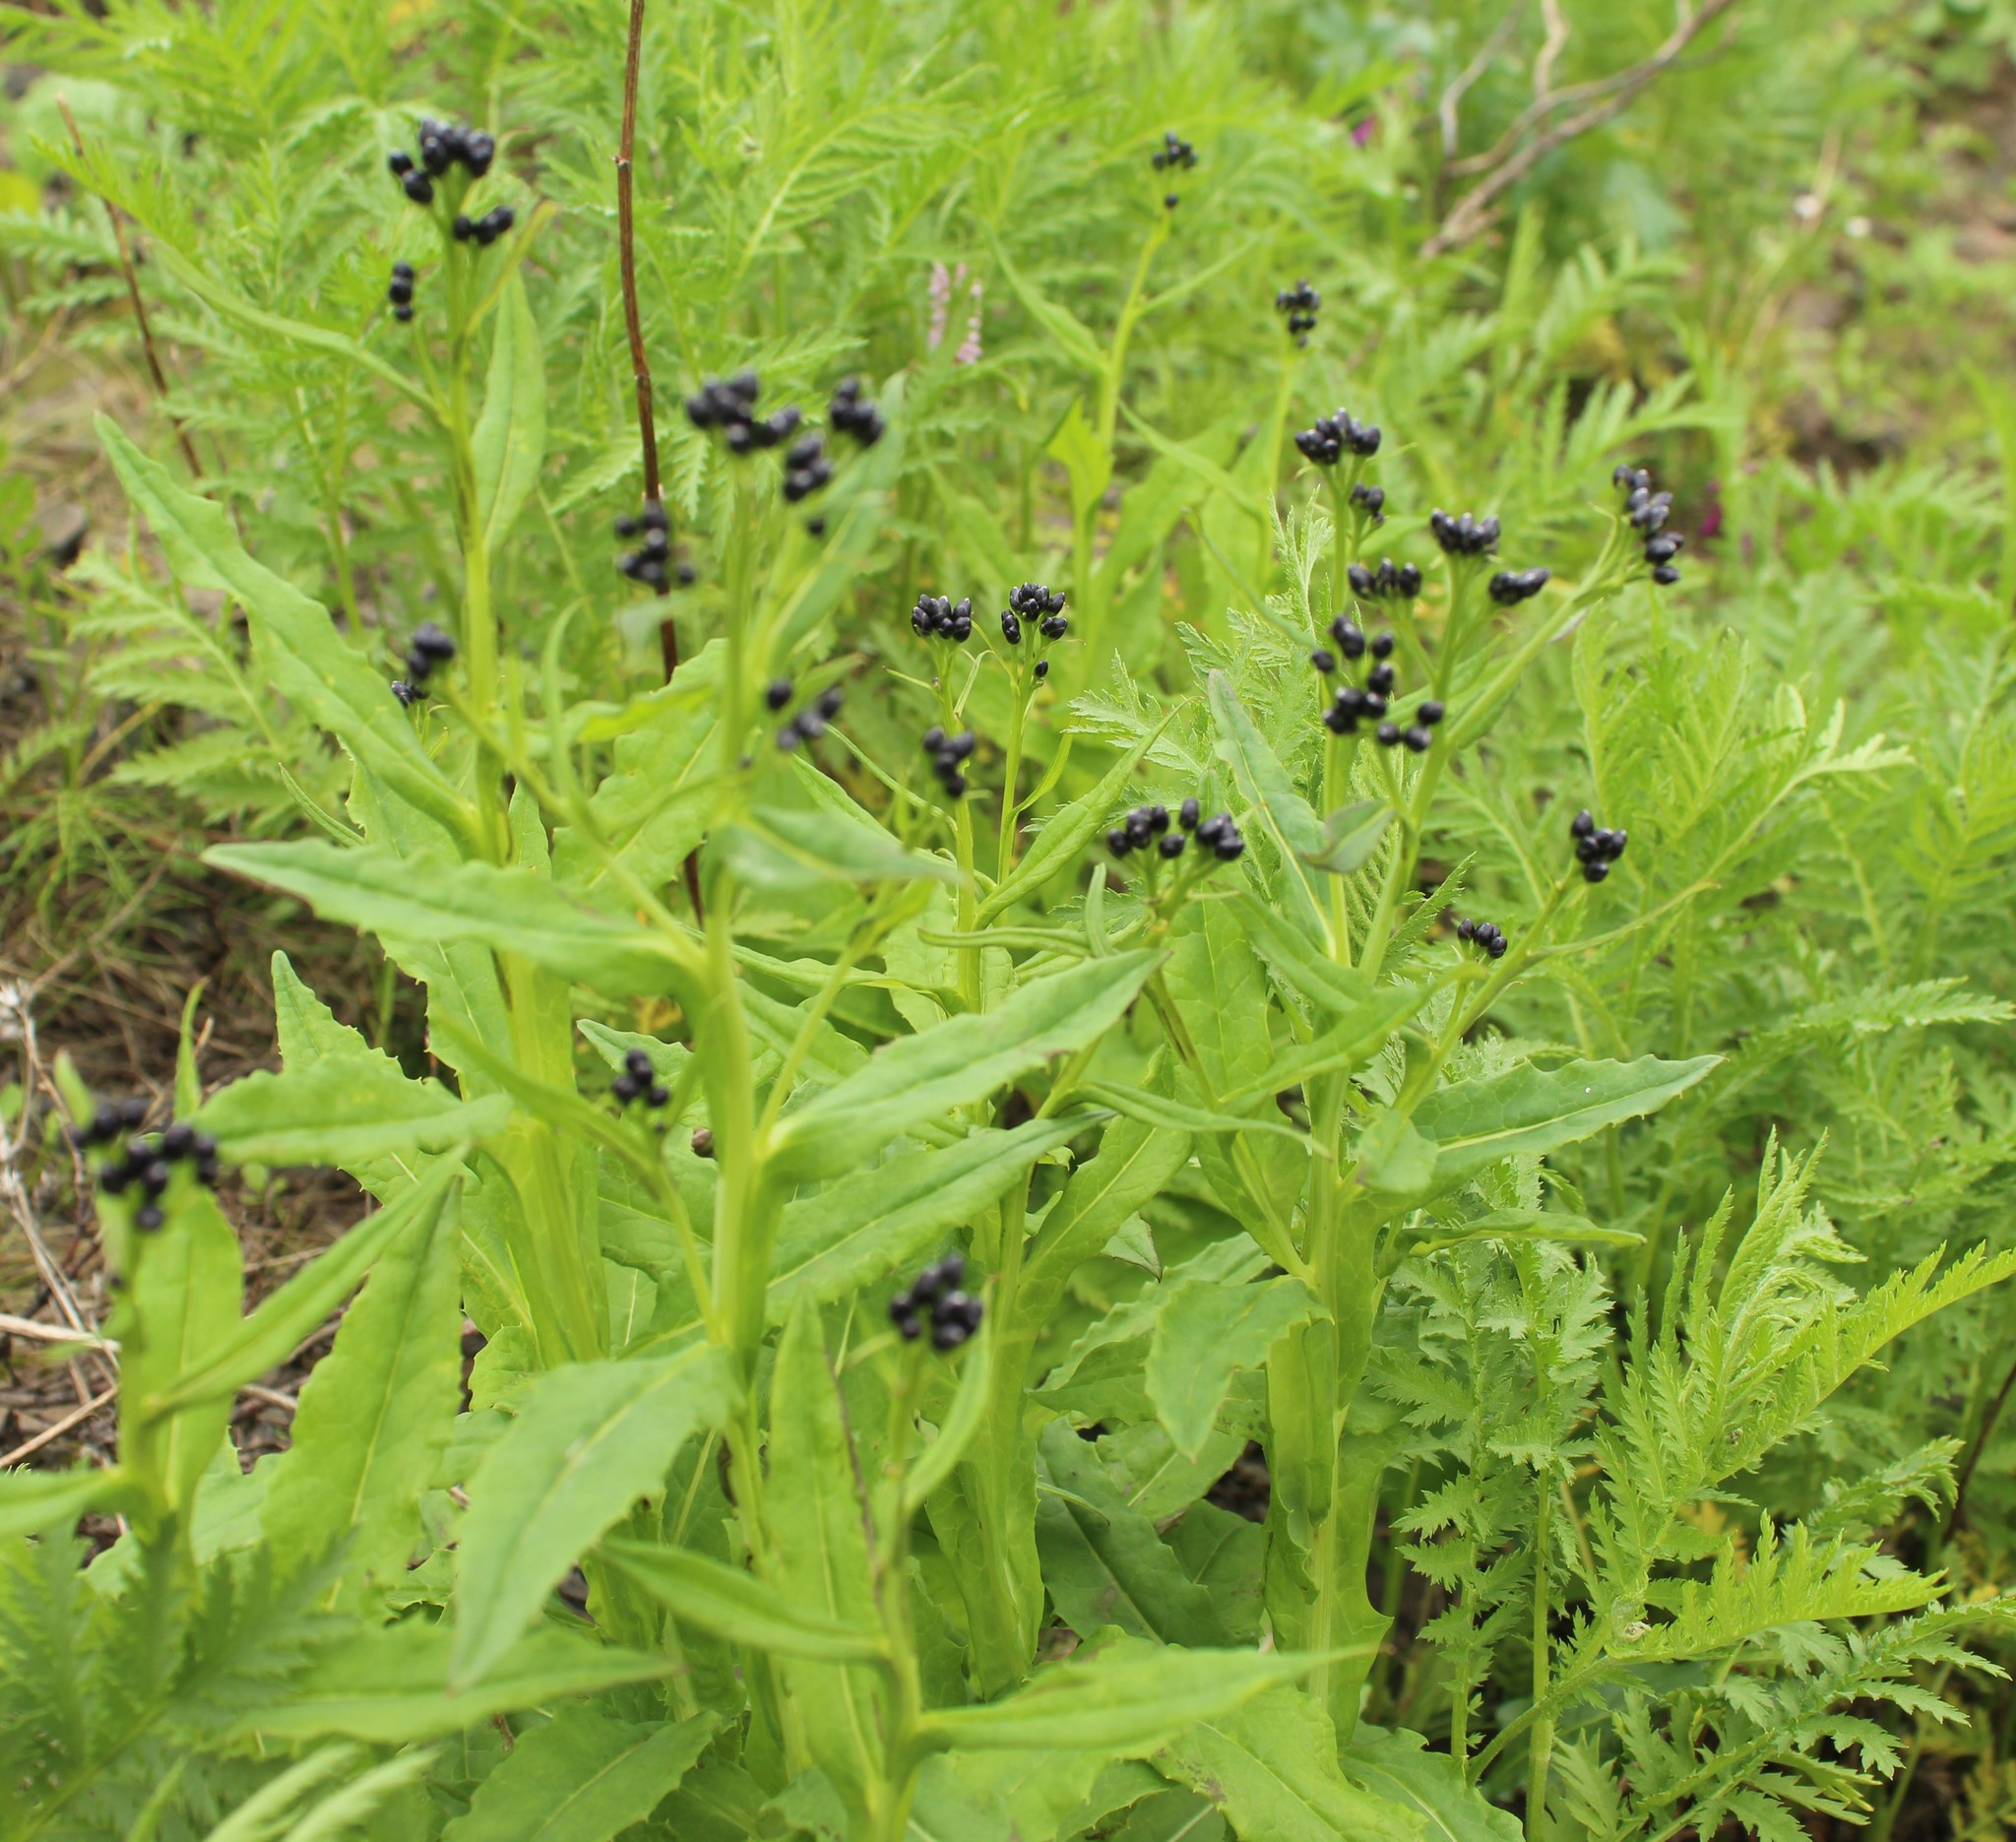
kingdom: Plantae
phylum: Tracheophyta
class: Magnoliopsida
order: Asterales
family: Asteraceae
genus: Saussurea
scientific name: Saussurea parviflora
